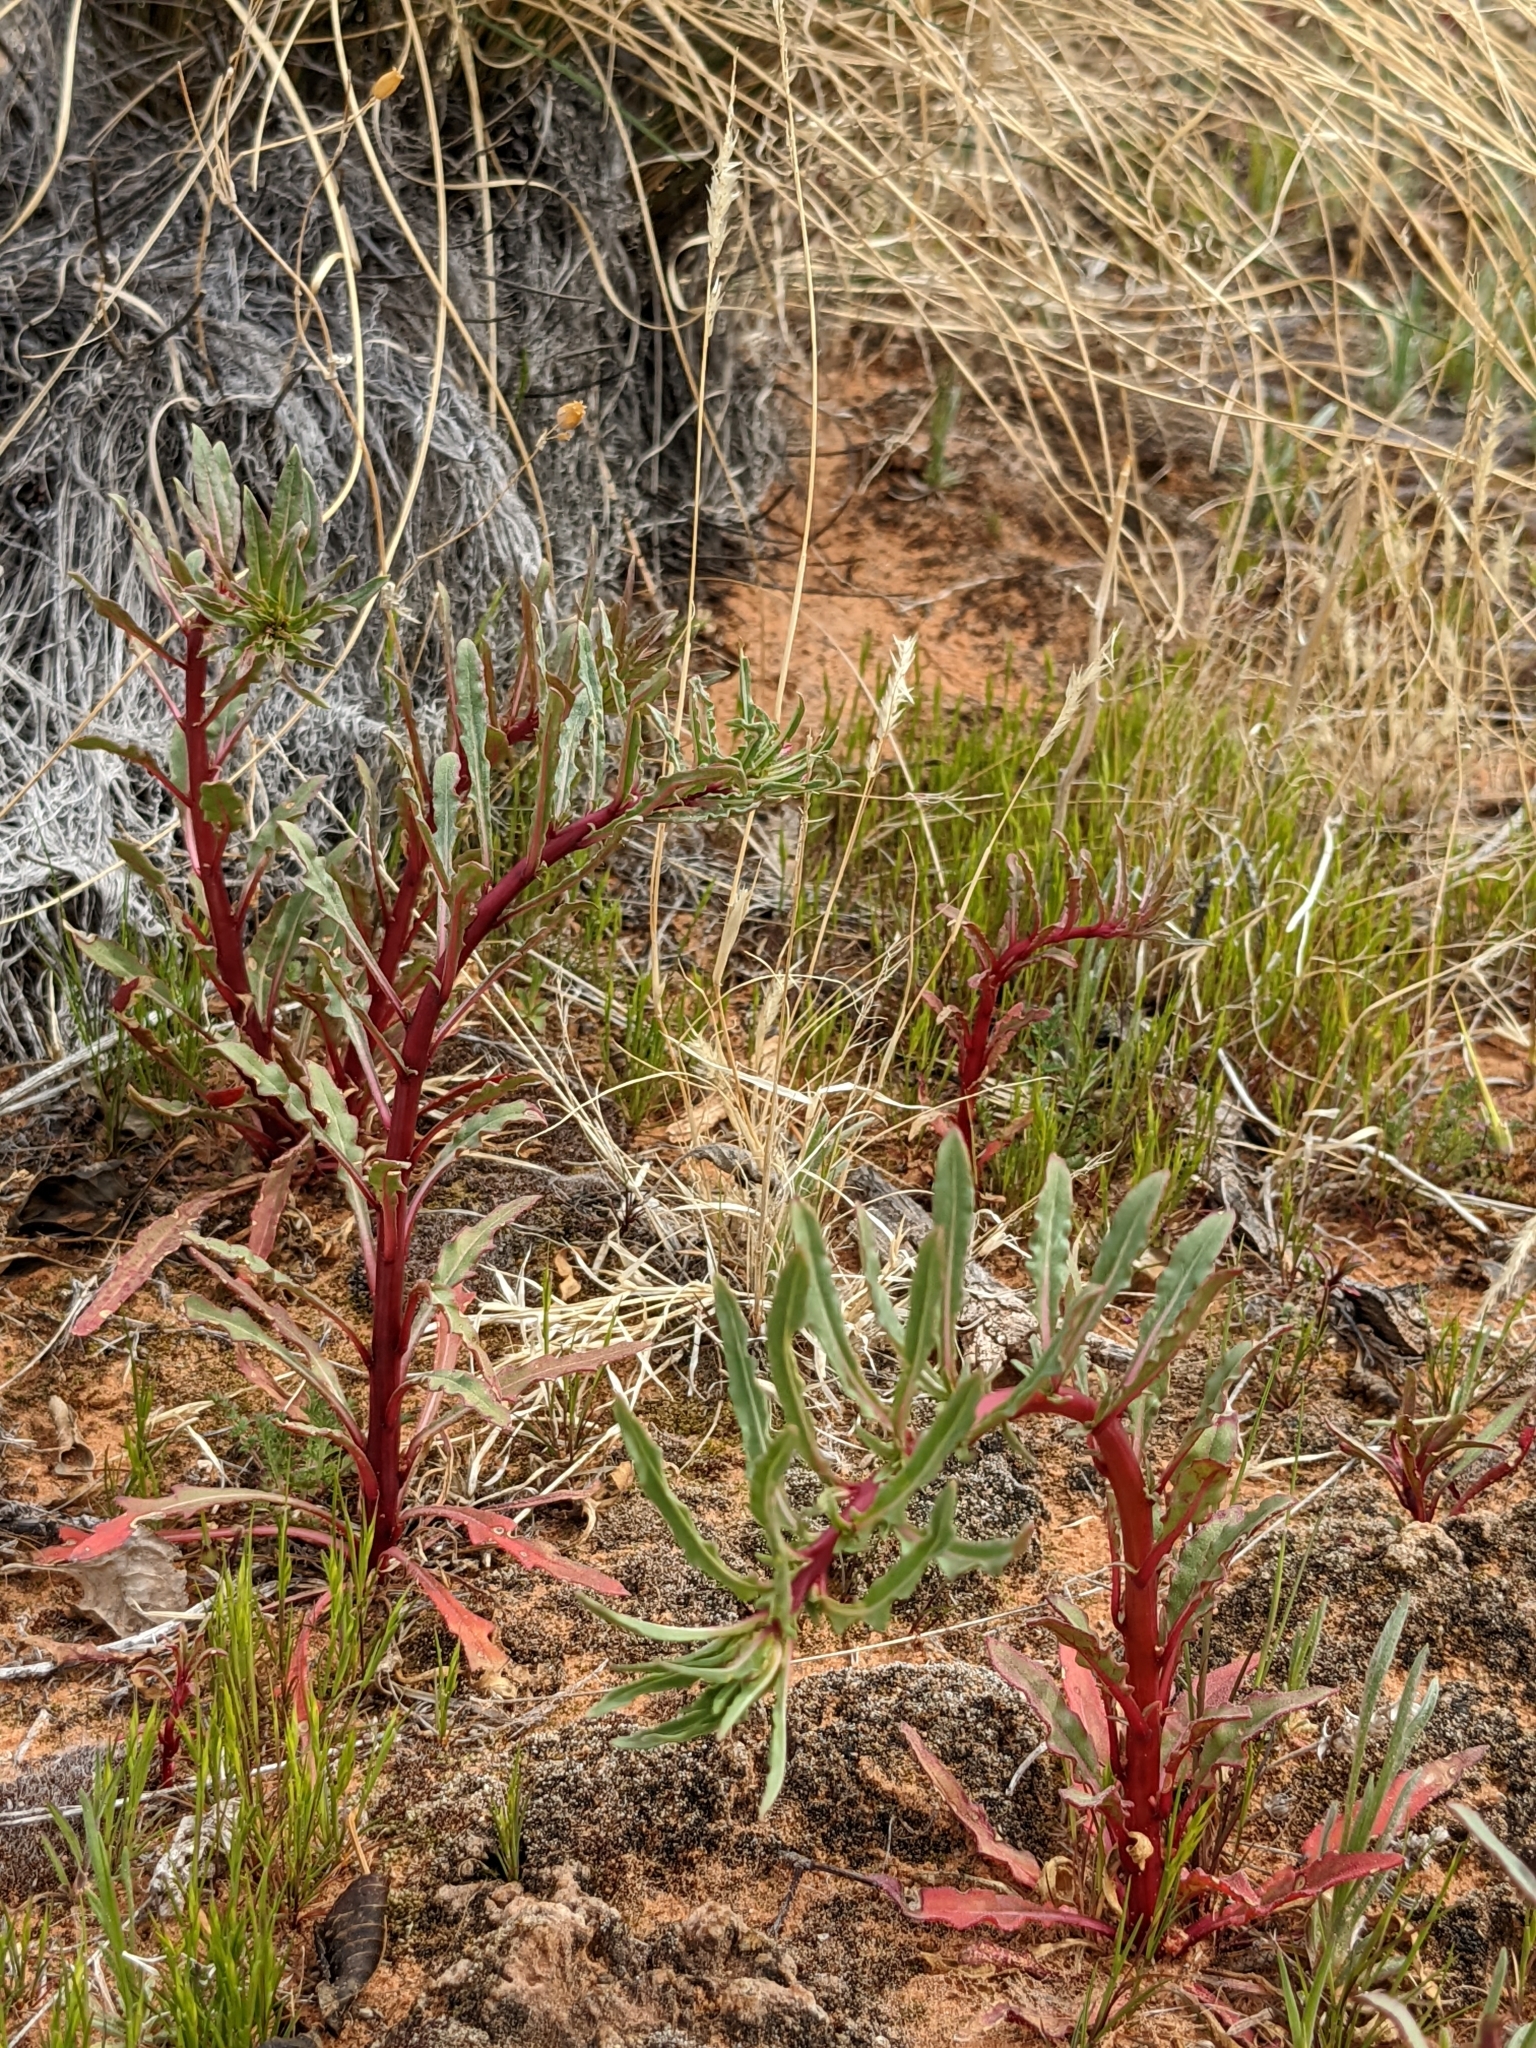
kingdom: Plantae
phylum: Tracheophyta
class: Magnoliopsida
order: Myrtales
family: Onagraceae
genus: Oenothera
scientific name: Oenothera pallida
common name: Pale evening-primrose
